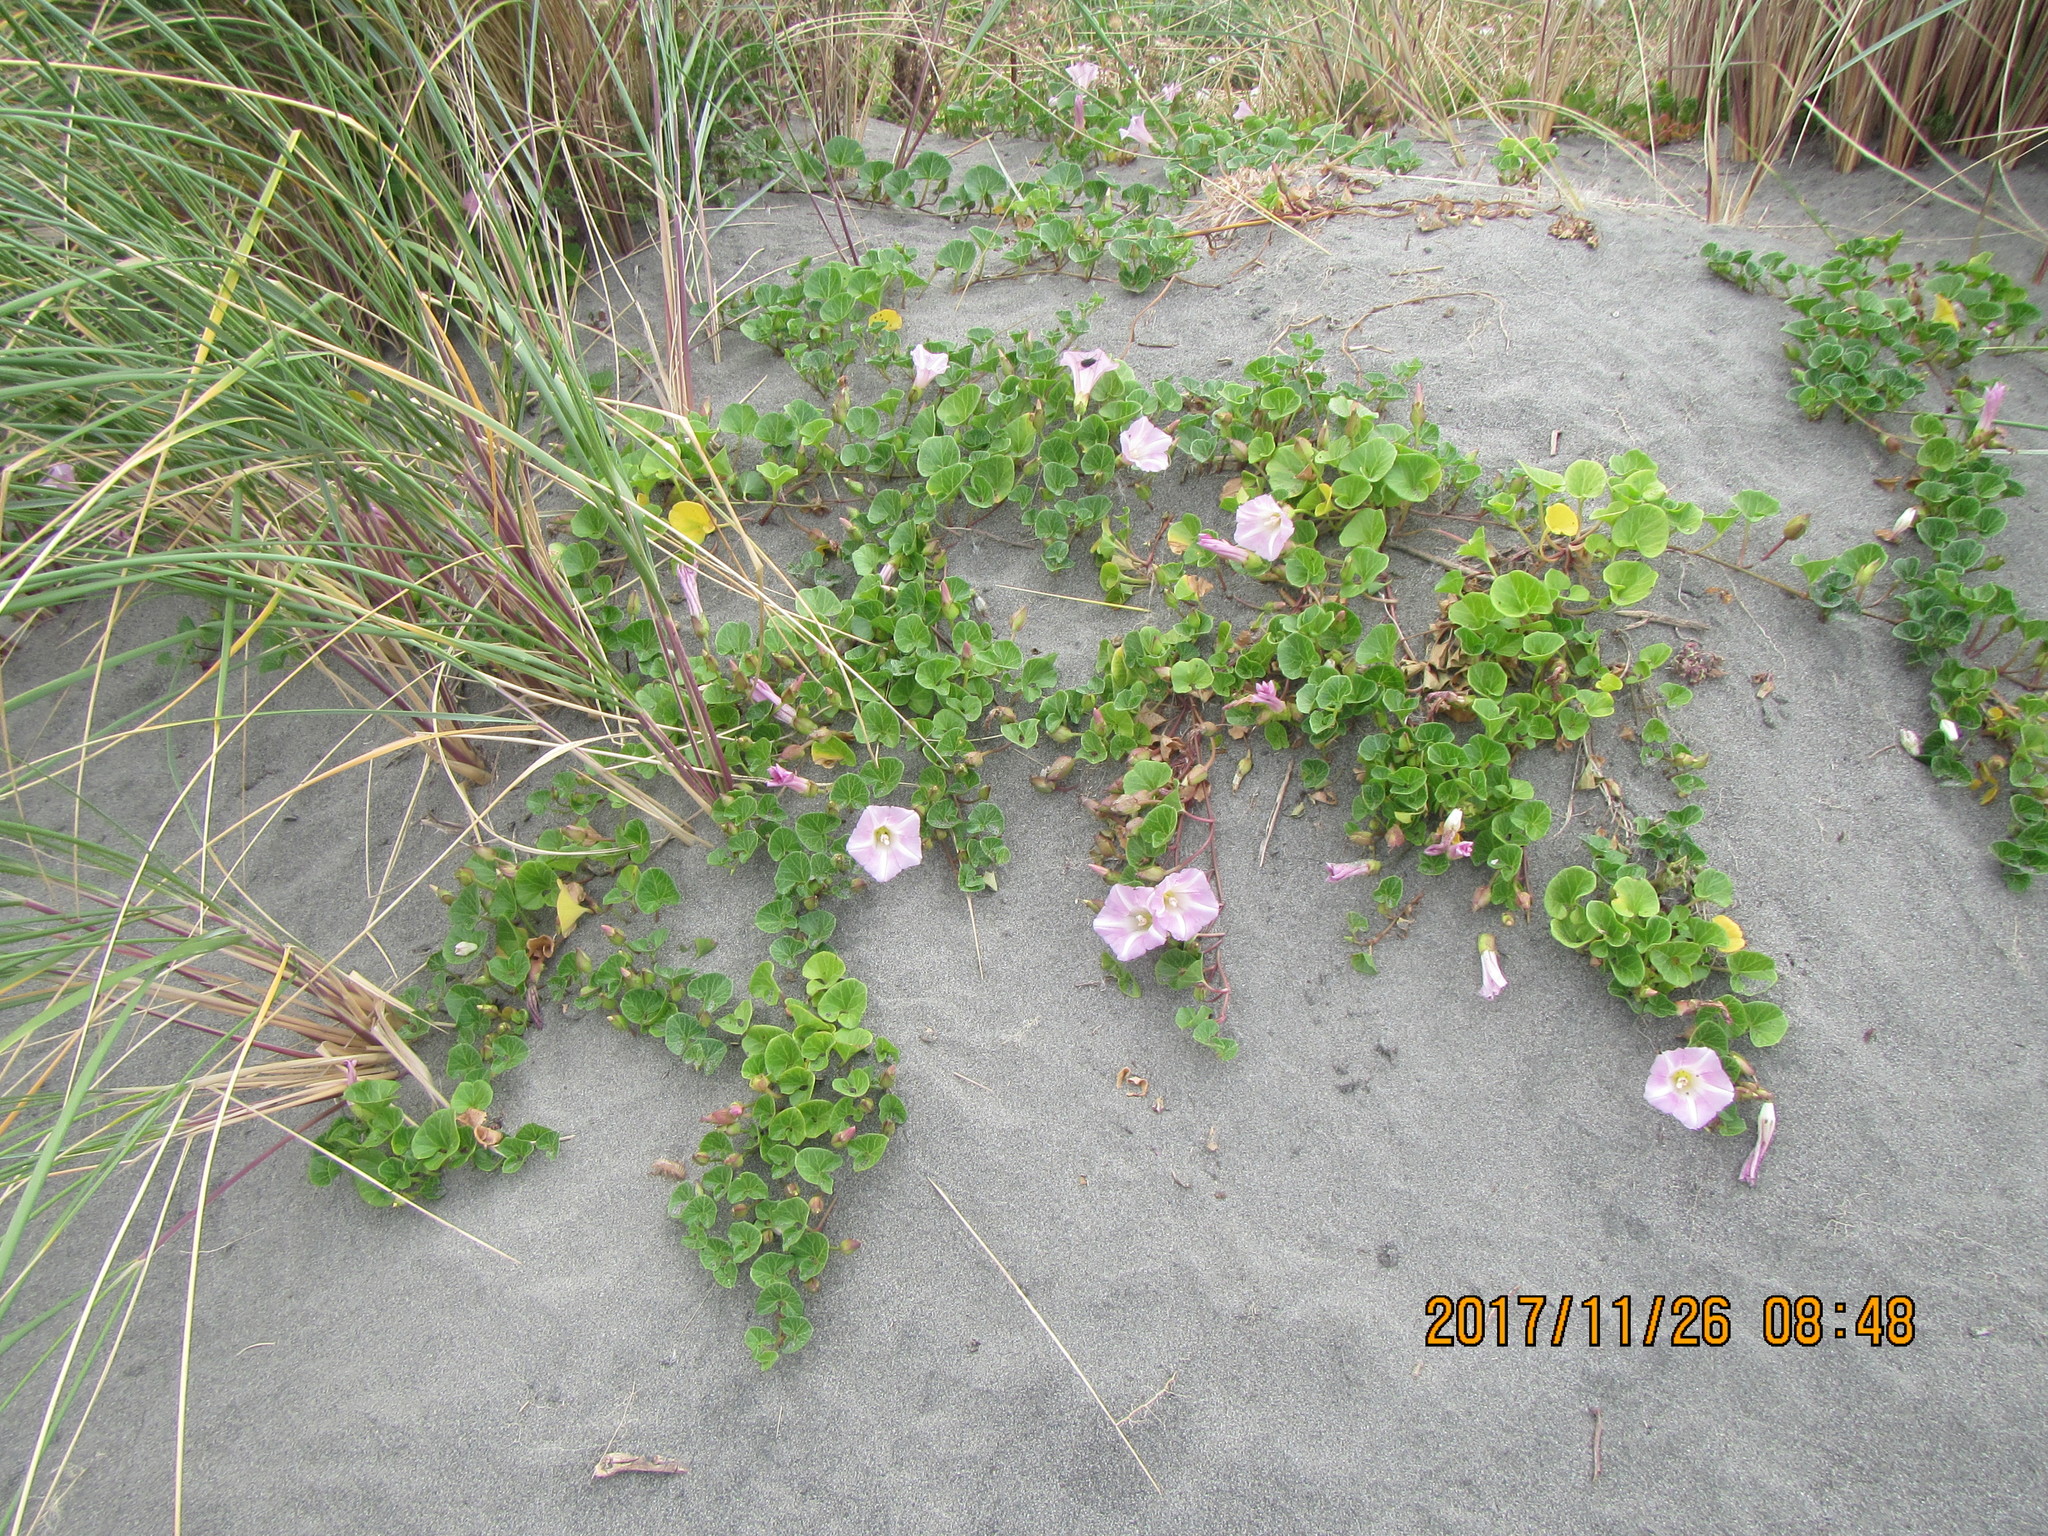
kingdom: Plantae
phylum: Tracheophyta
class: Magnoliopsida
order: Solanales
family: Convolvulaceae
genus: Calystegia
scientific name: Calystegia soldanella
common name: Sea bindweed
